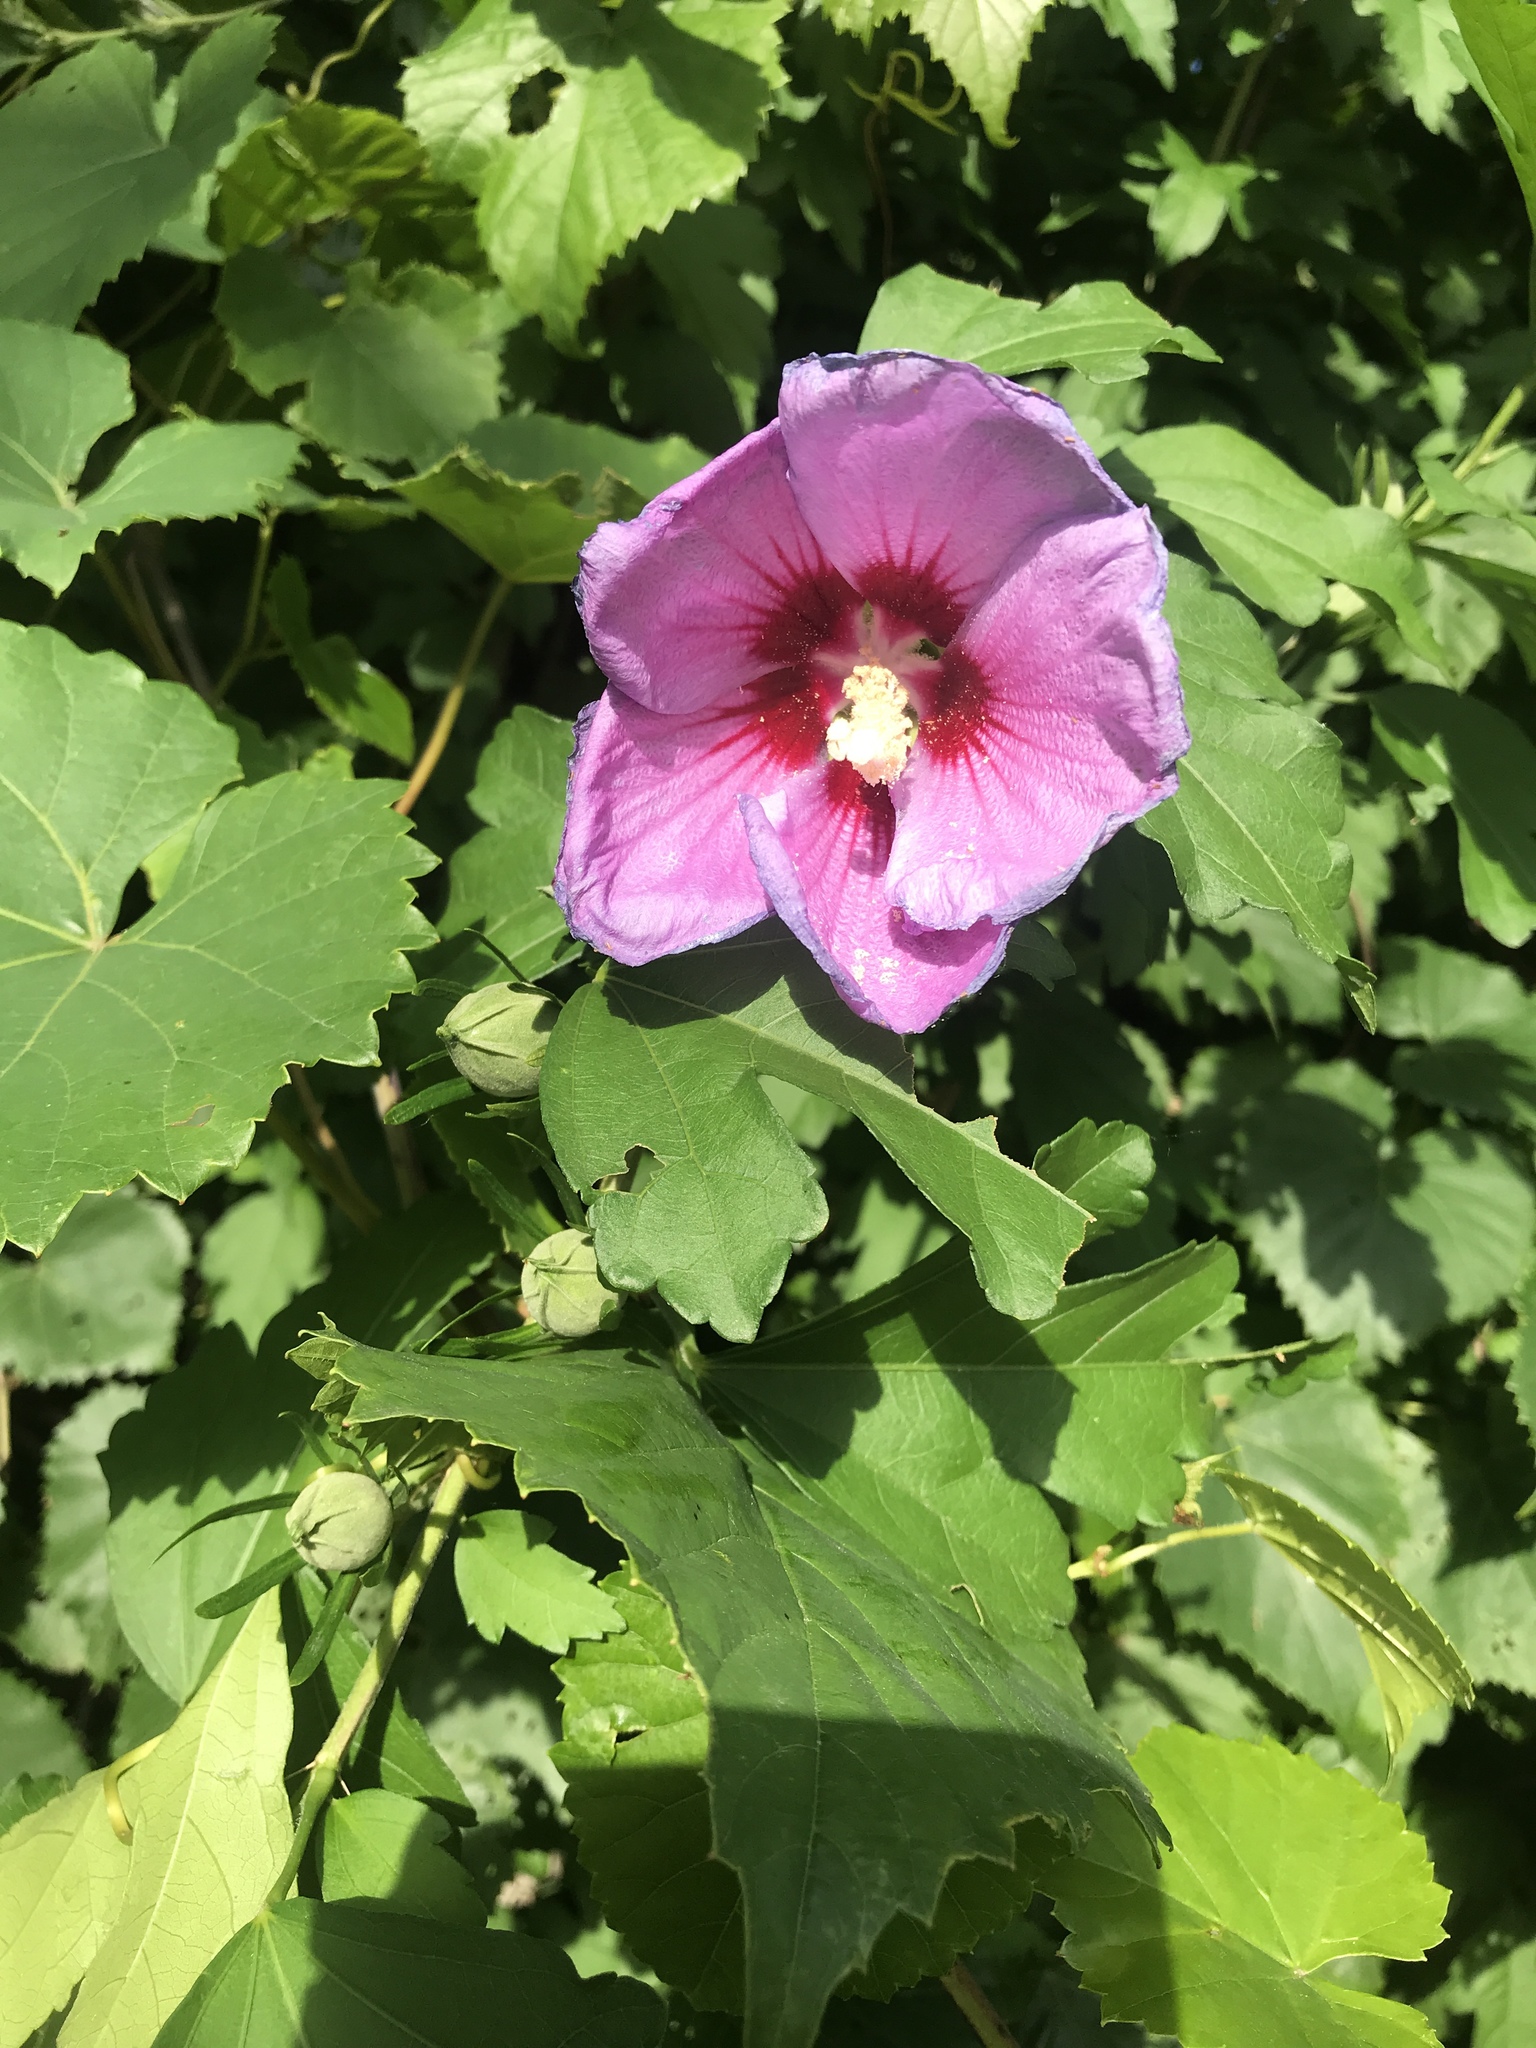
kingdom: Plantae
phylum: Tracheophyta
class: Magnoliopsida
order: Malvales
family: Malvaceae
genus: Hibiscus
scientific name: Hibiscus syriacus
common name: Syrian ketmia
